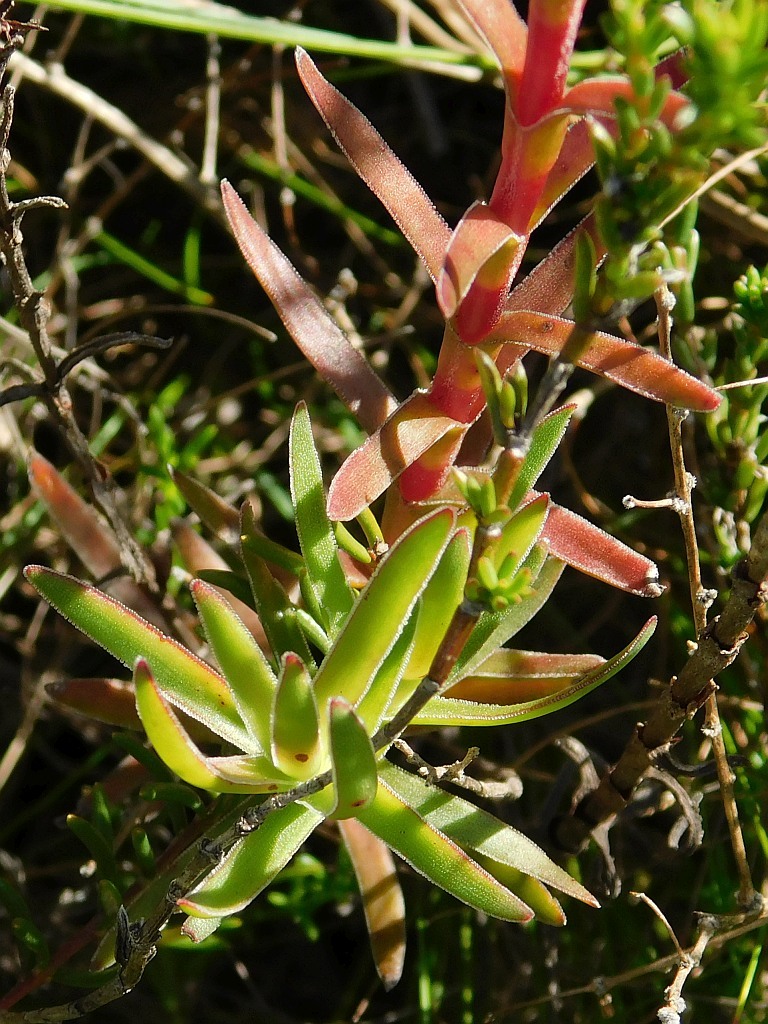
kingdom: Plantae
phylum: Tracheophyta
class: Magnoliopsida
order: Saxifragales
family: Crassulaceae
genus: Crassula
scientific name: Crassula obtusa
